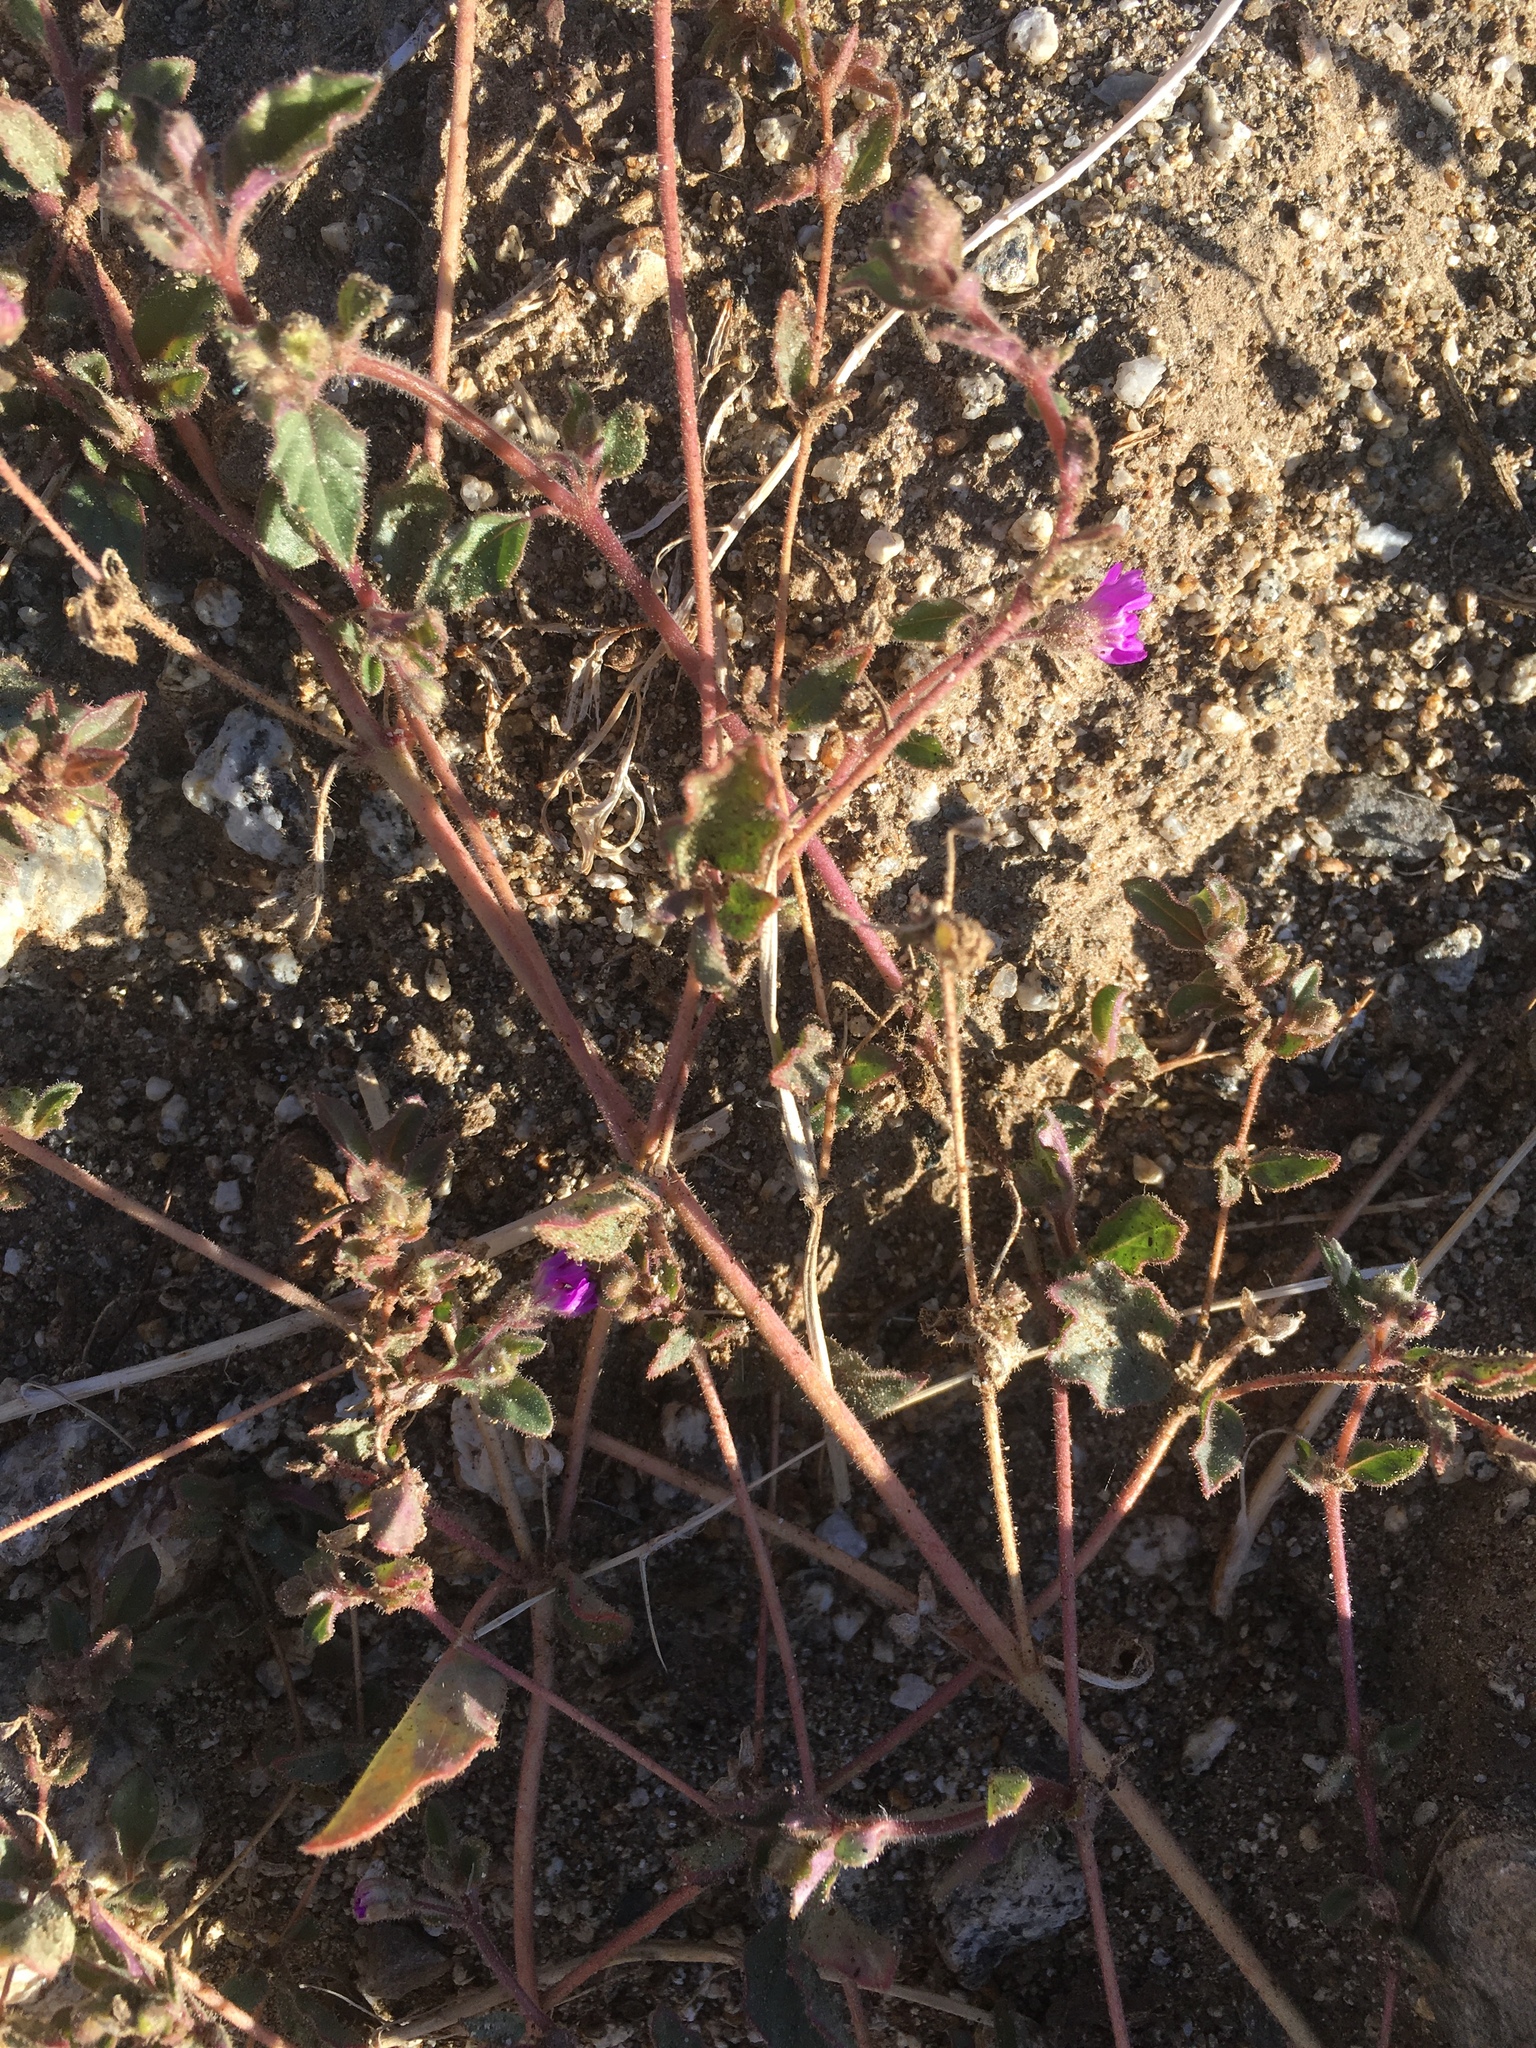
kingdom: Plantae
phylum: Tracheophyta
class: Magnoliopsida
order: Caryophyllales
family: Nyctaginaceae
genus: Allionia
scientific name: Allionia incarnata
